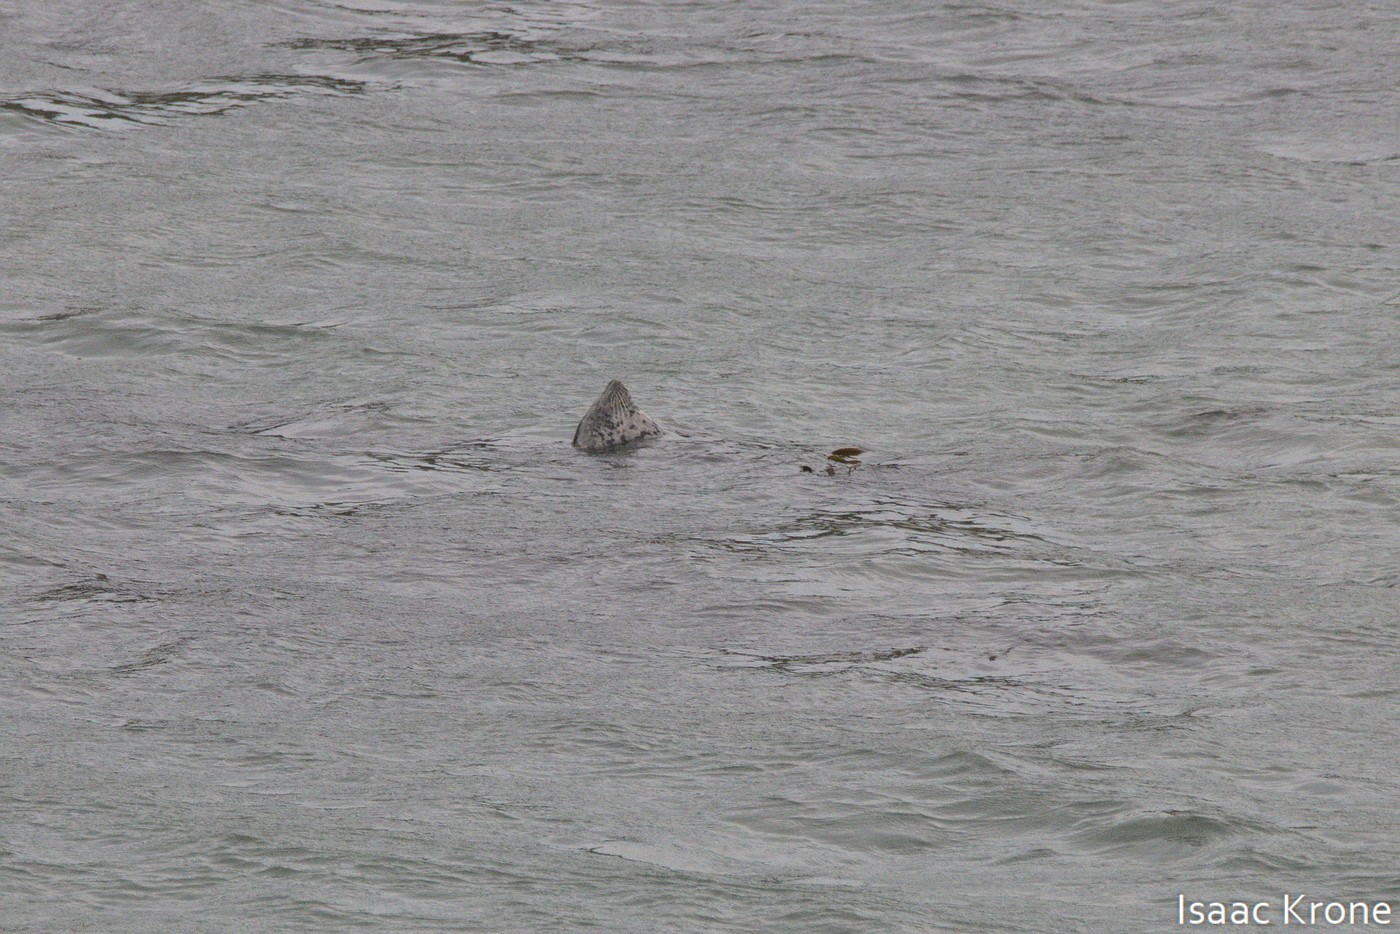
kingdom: Animalia
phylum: Chordata
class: Mammalia
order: Carnivora
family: Phocidae
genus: Phoca
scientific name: Phoca vitulina
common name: Harbor seal
